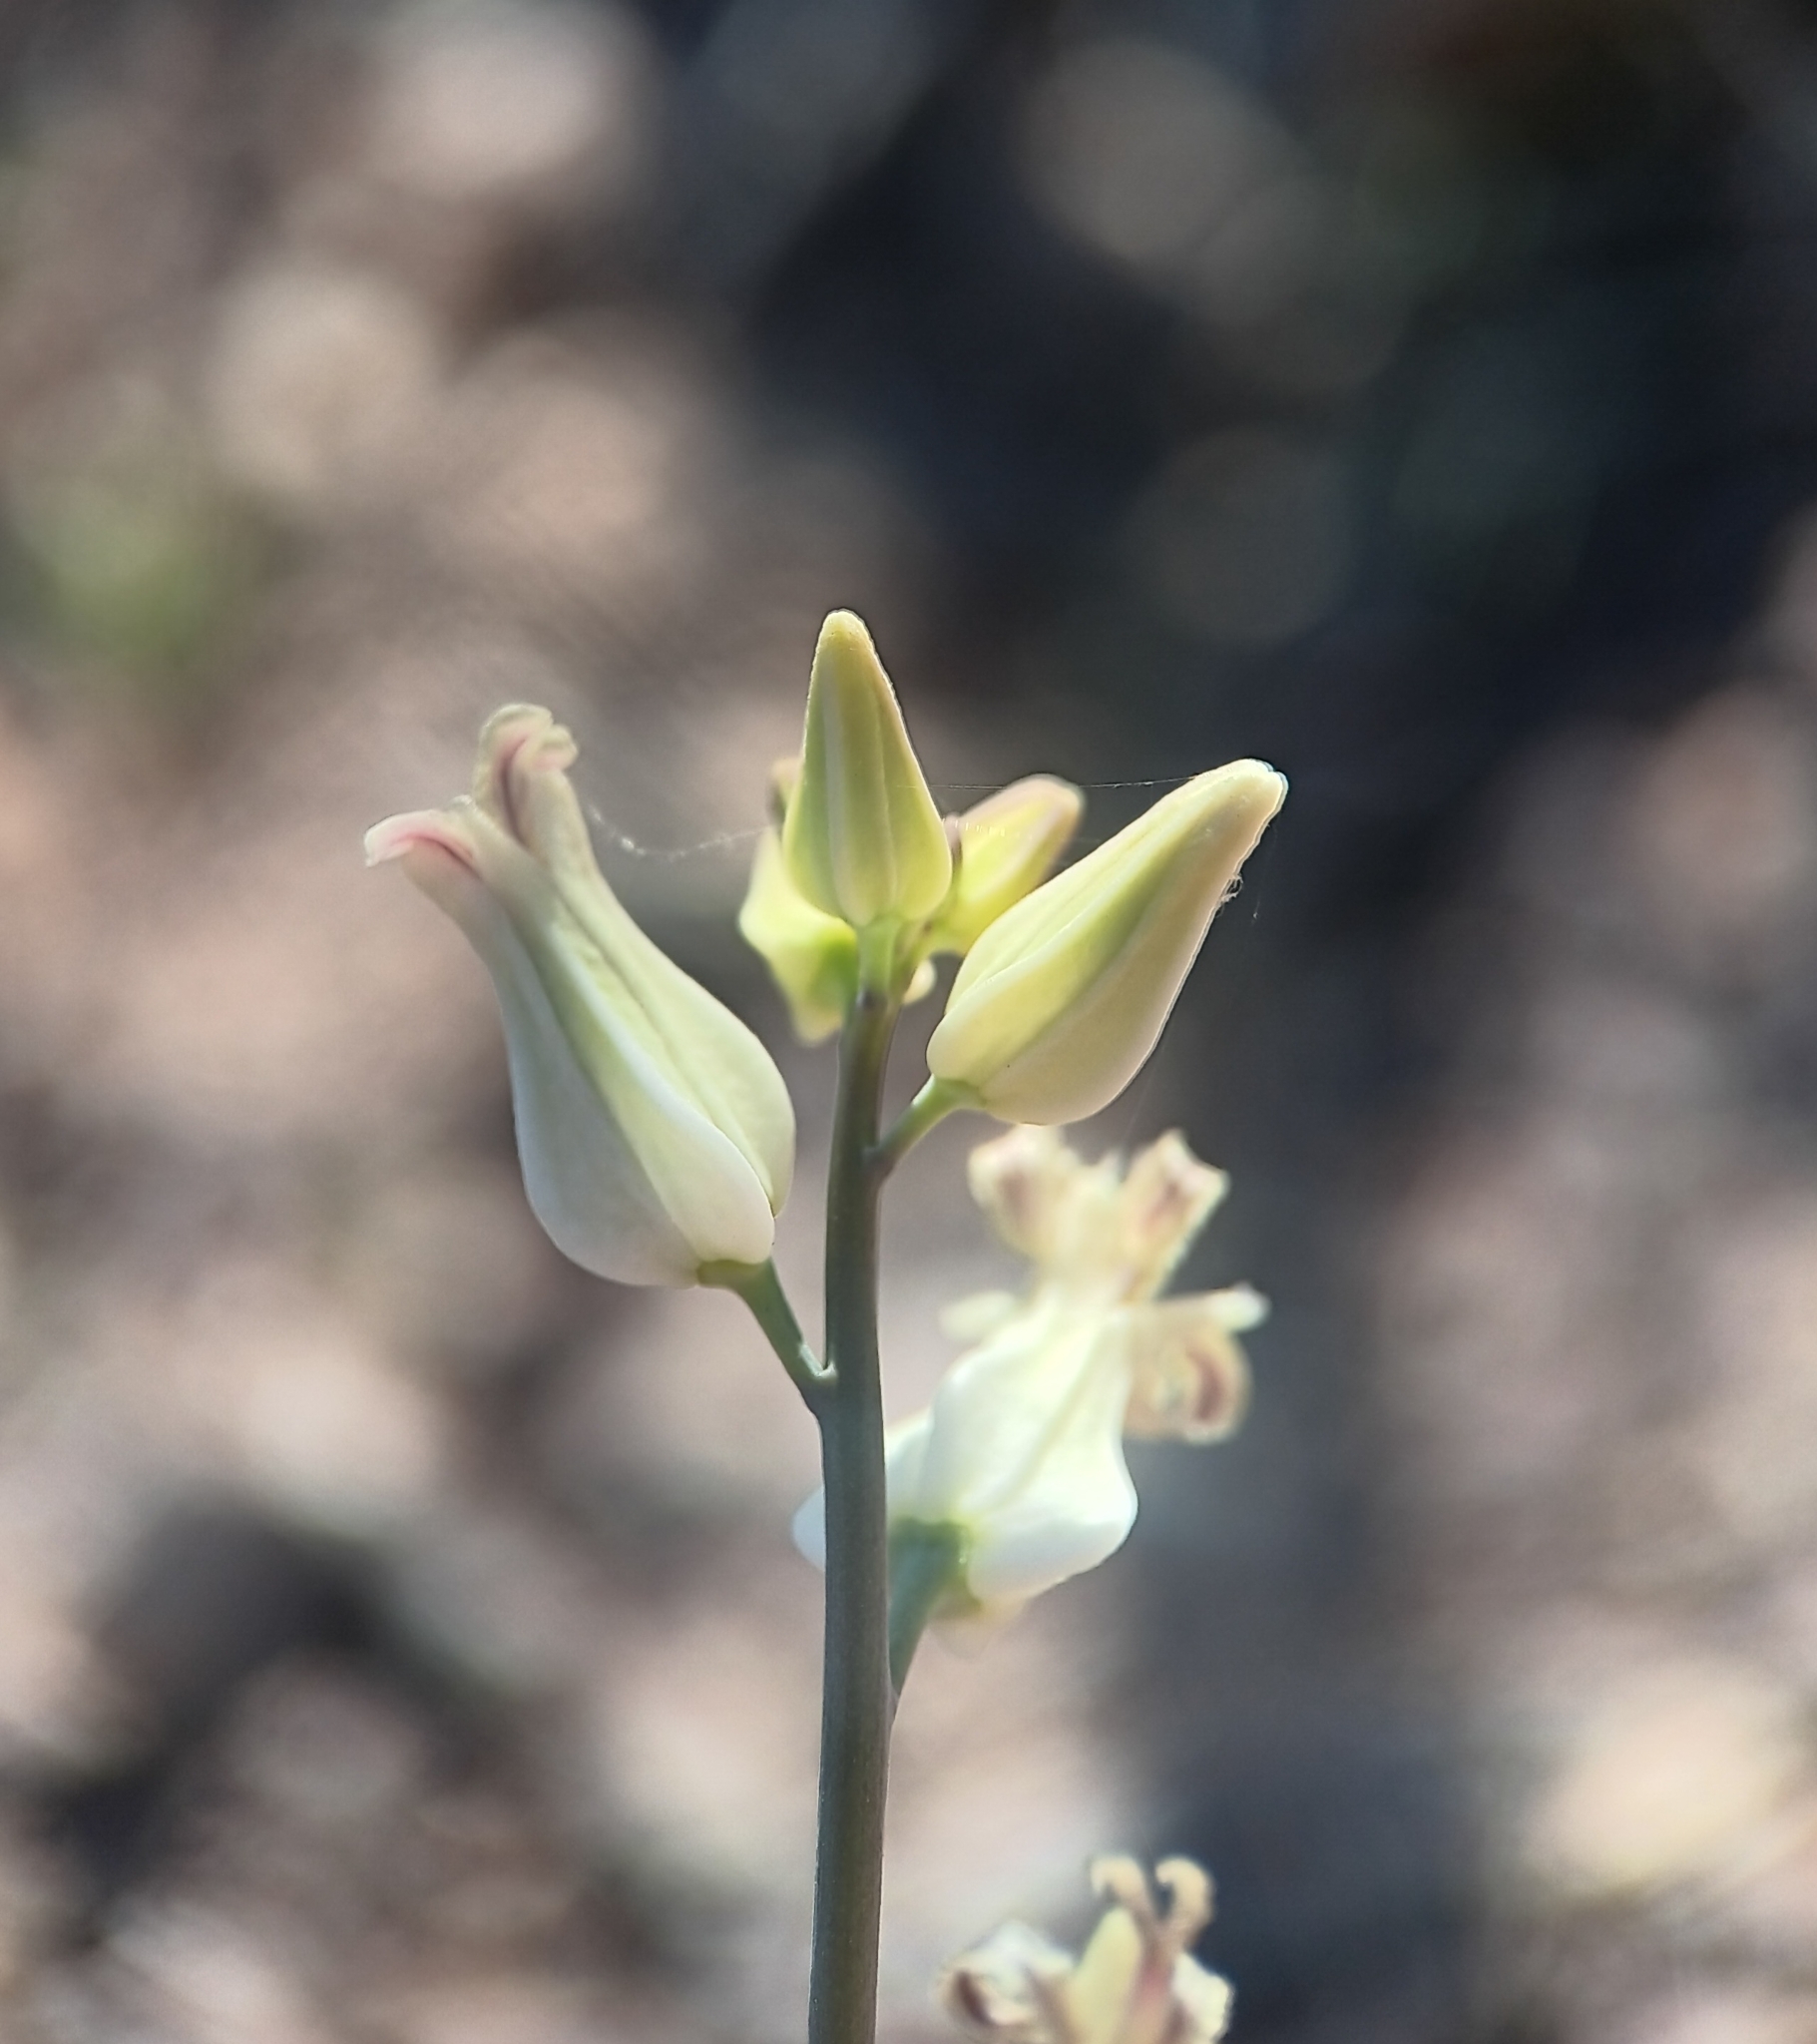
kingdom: Plantae
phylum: Tracheophyta
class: Magnoliopsida
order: Brassicales
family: Brassicaceae
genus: Streptanthus
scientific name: Streptanthus carinatus
